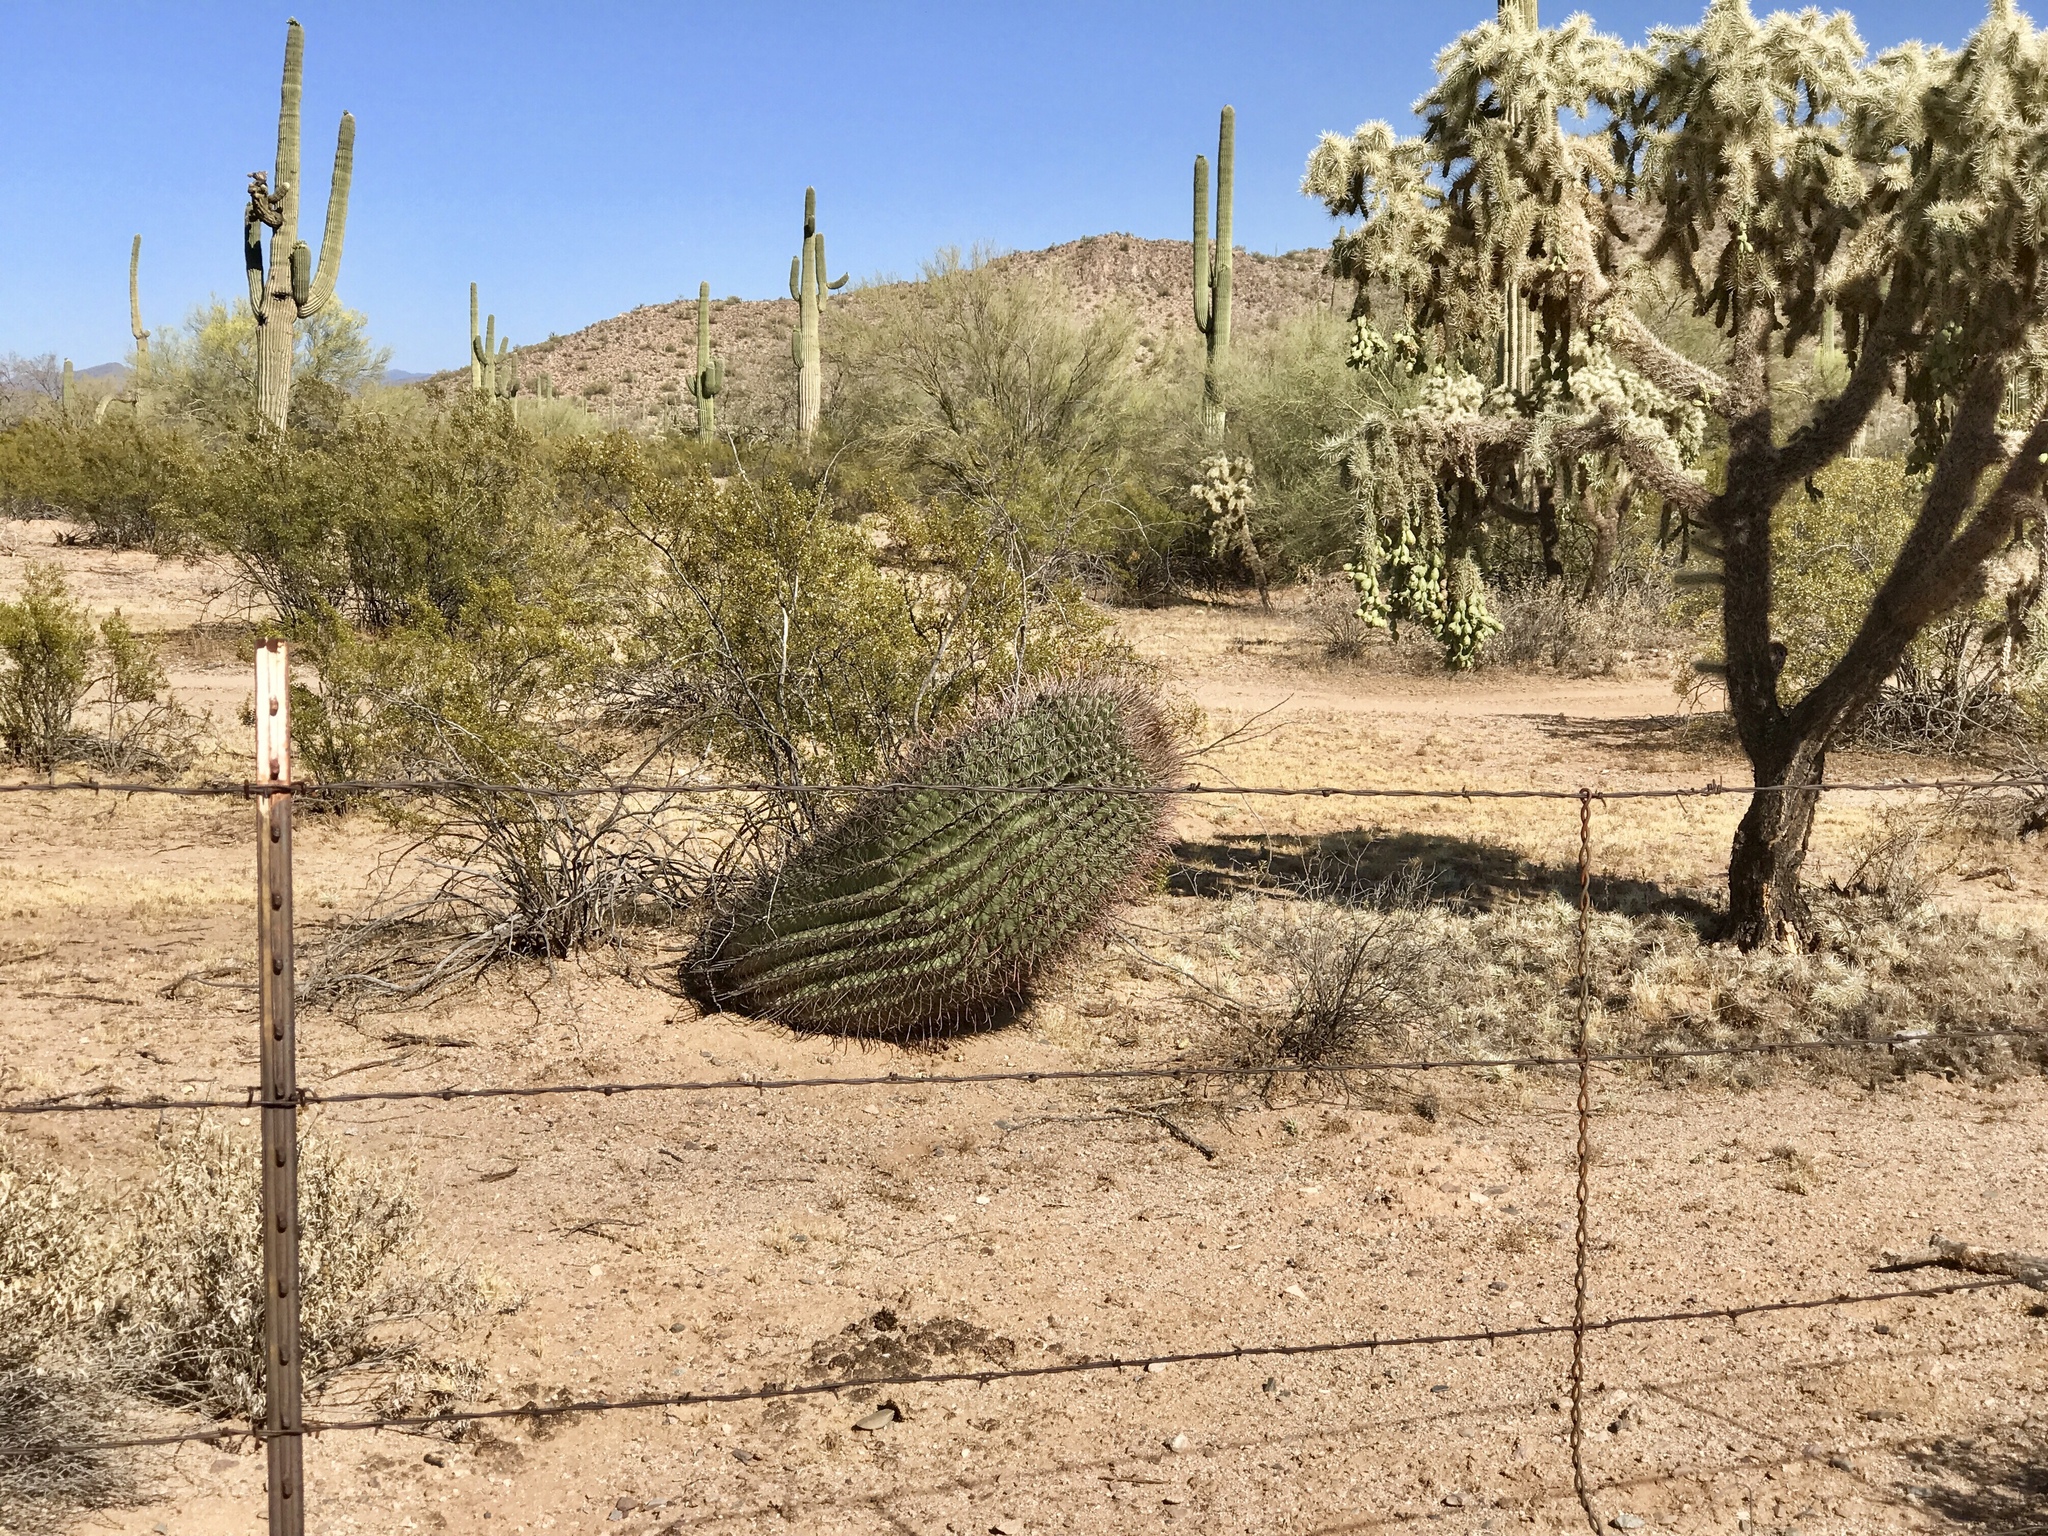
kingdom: Plantae
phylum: Tracheophyta
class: Magnoliopsida
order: Caryophyllales
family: Cactaceae
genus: Ferocactus
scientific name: Ferocactus wislizeni
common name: Candy barrel cactus
